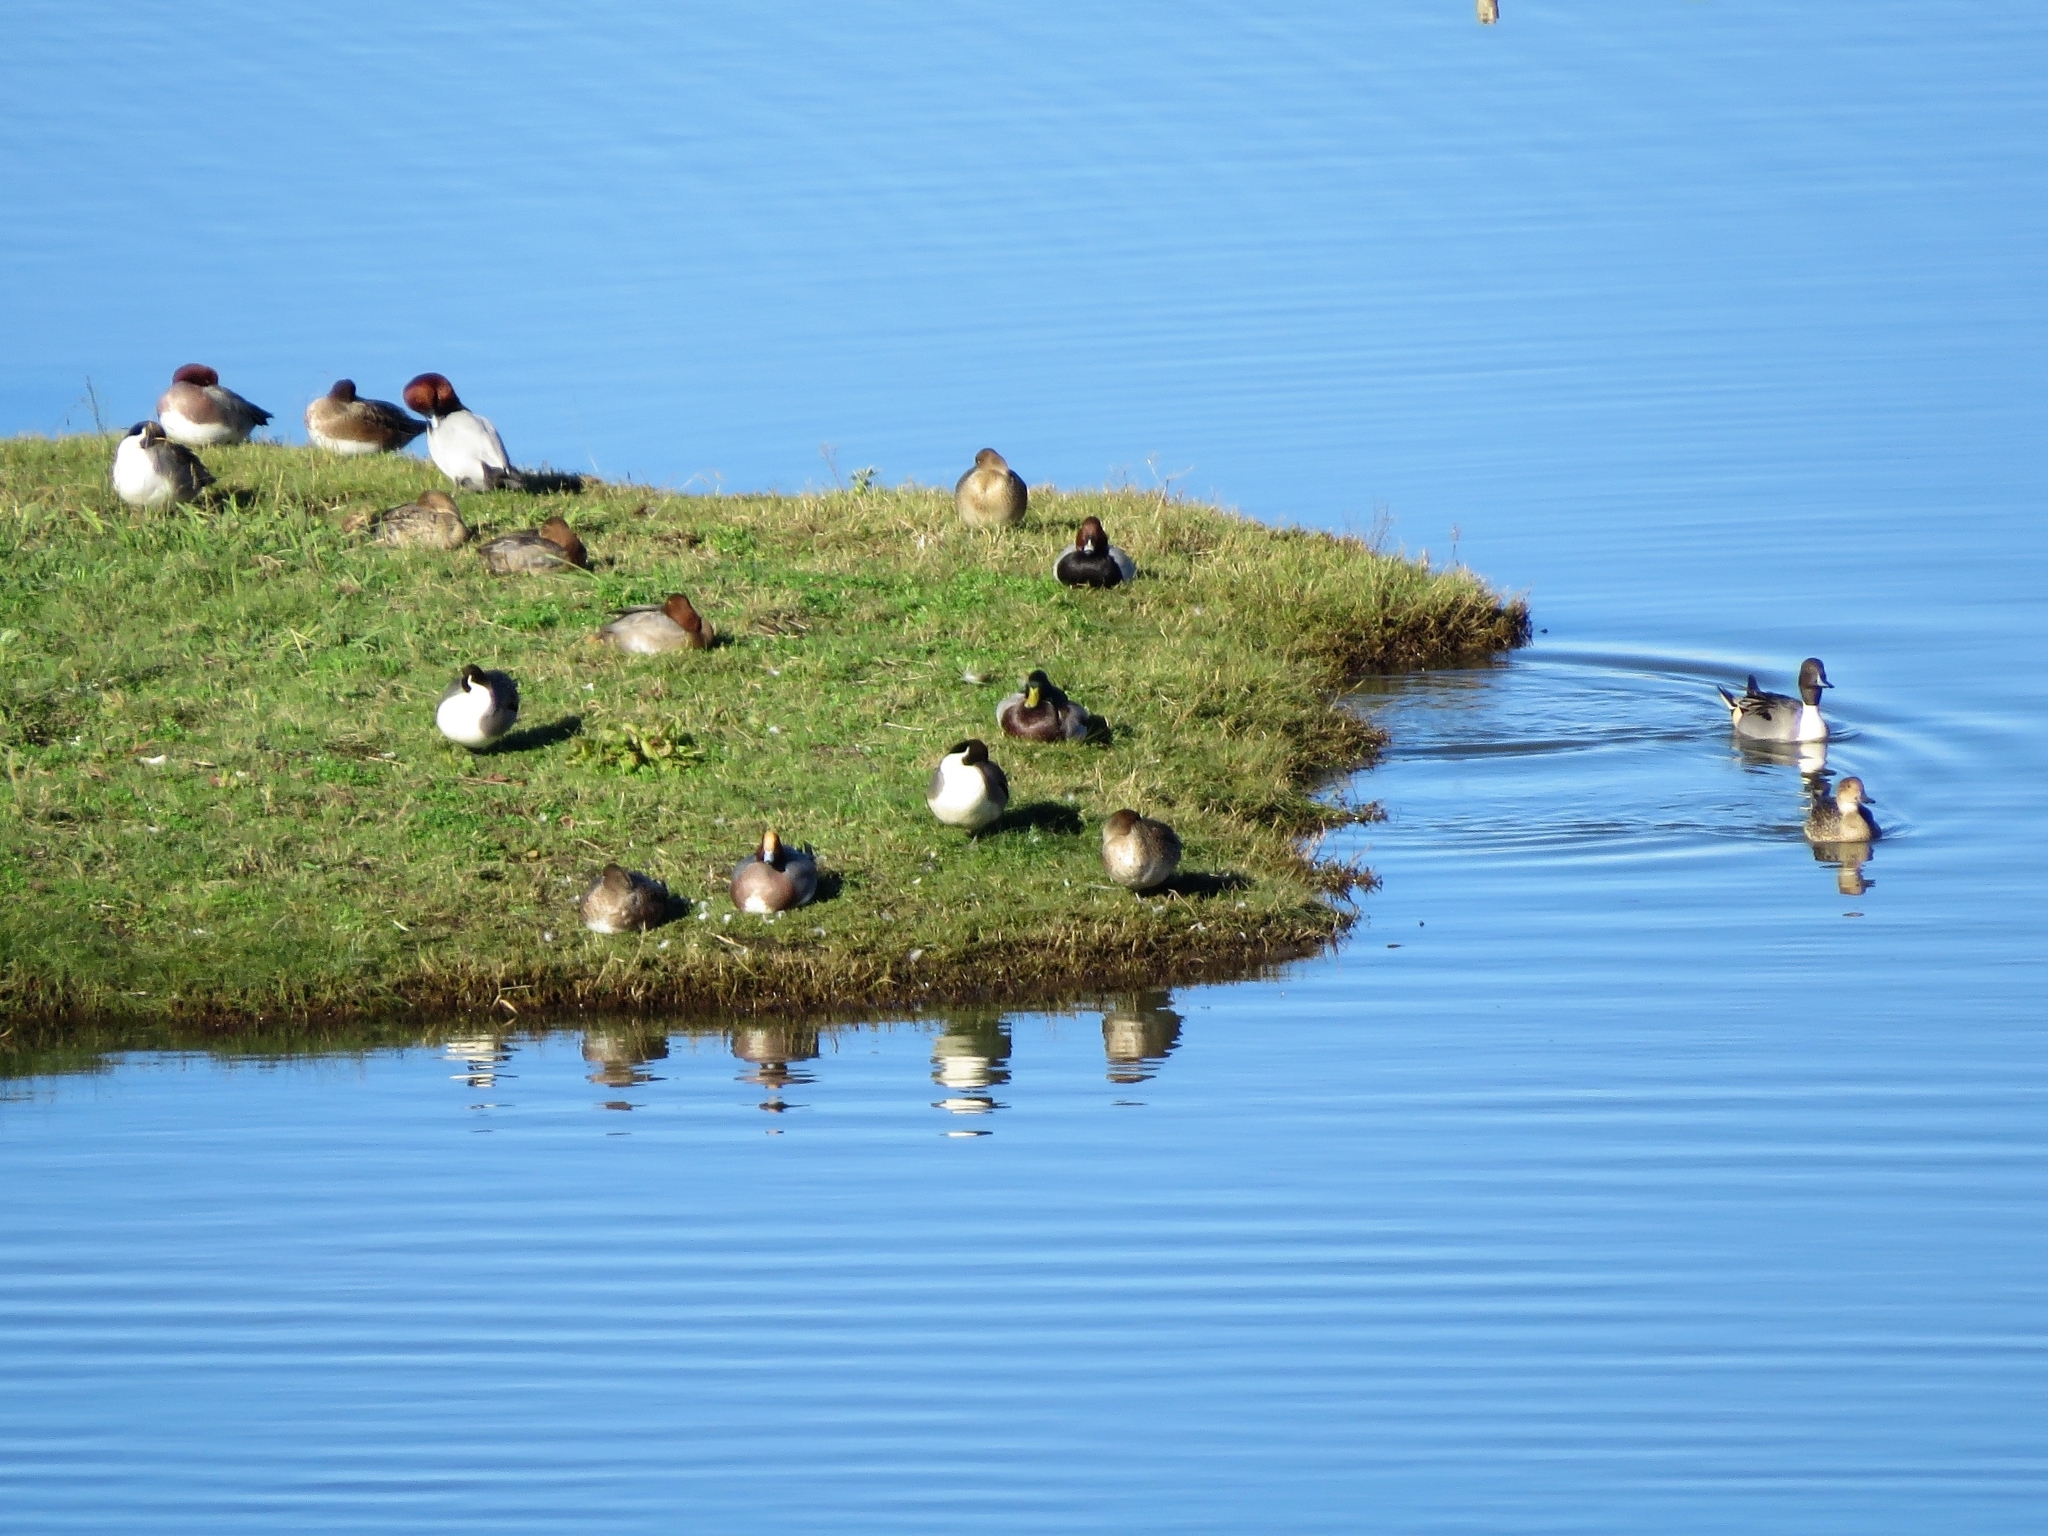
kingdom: Animalia
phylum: Chordata
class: Aves
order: Anseriformes
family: Anatidae
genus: Anas
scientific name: Anas acuta
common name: Northern pintail
